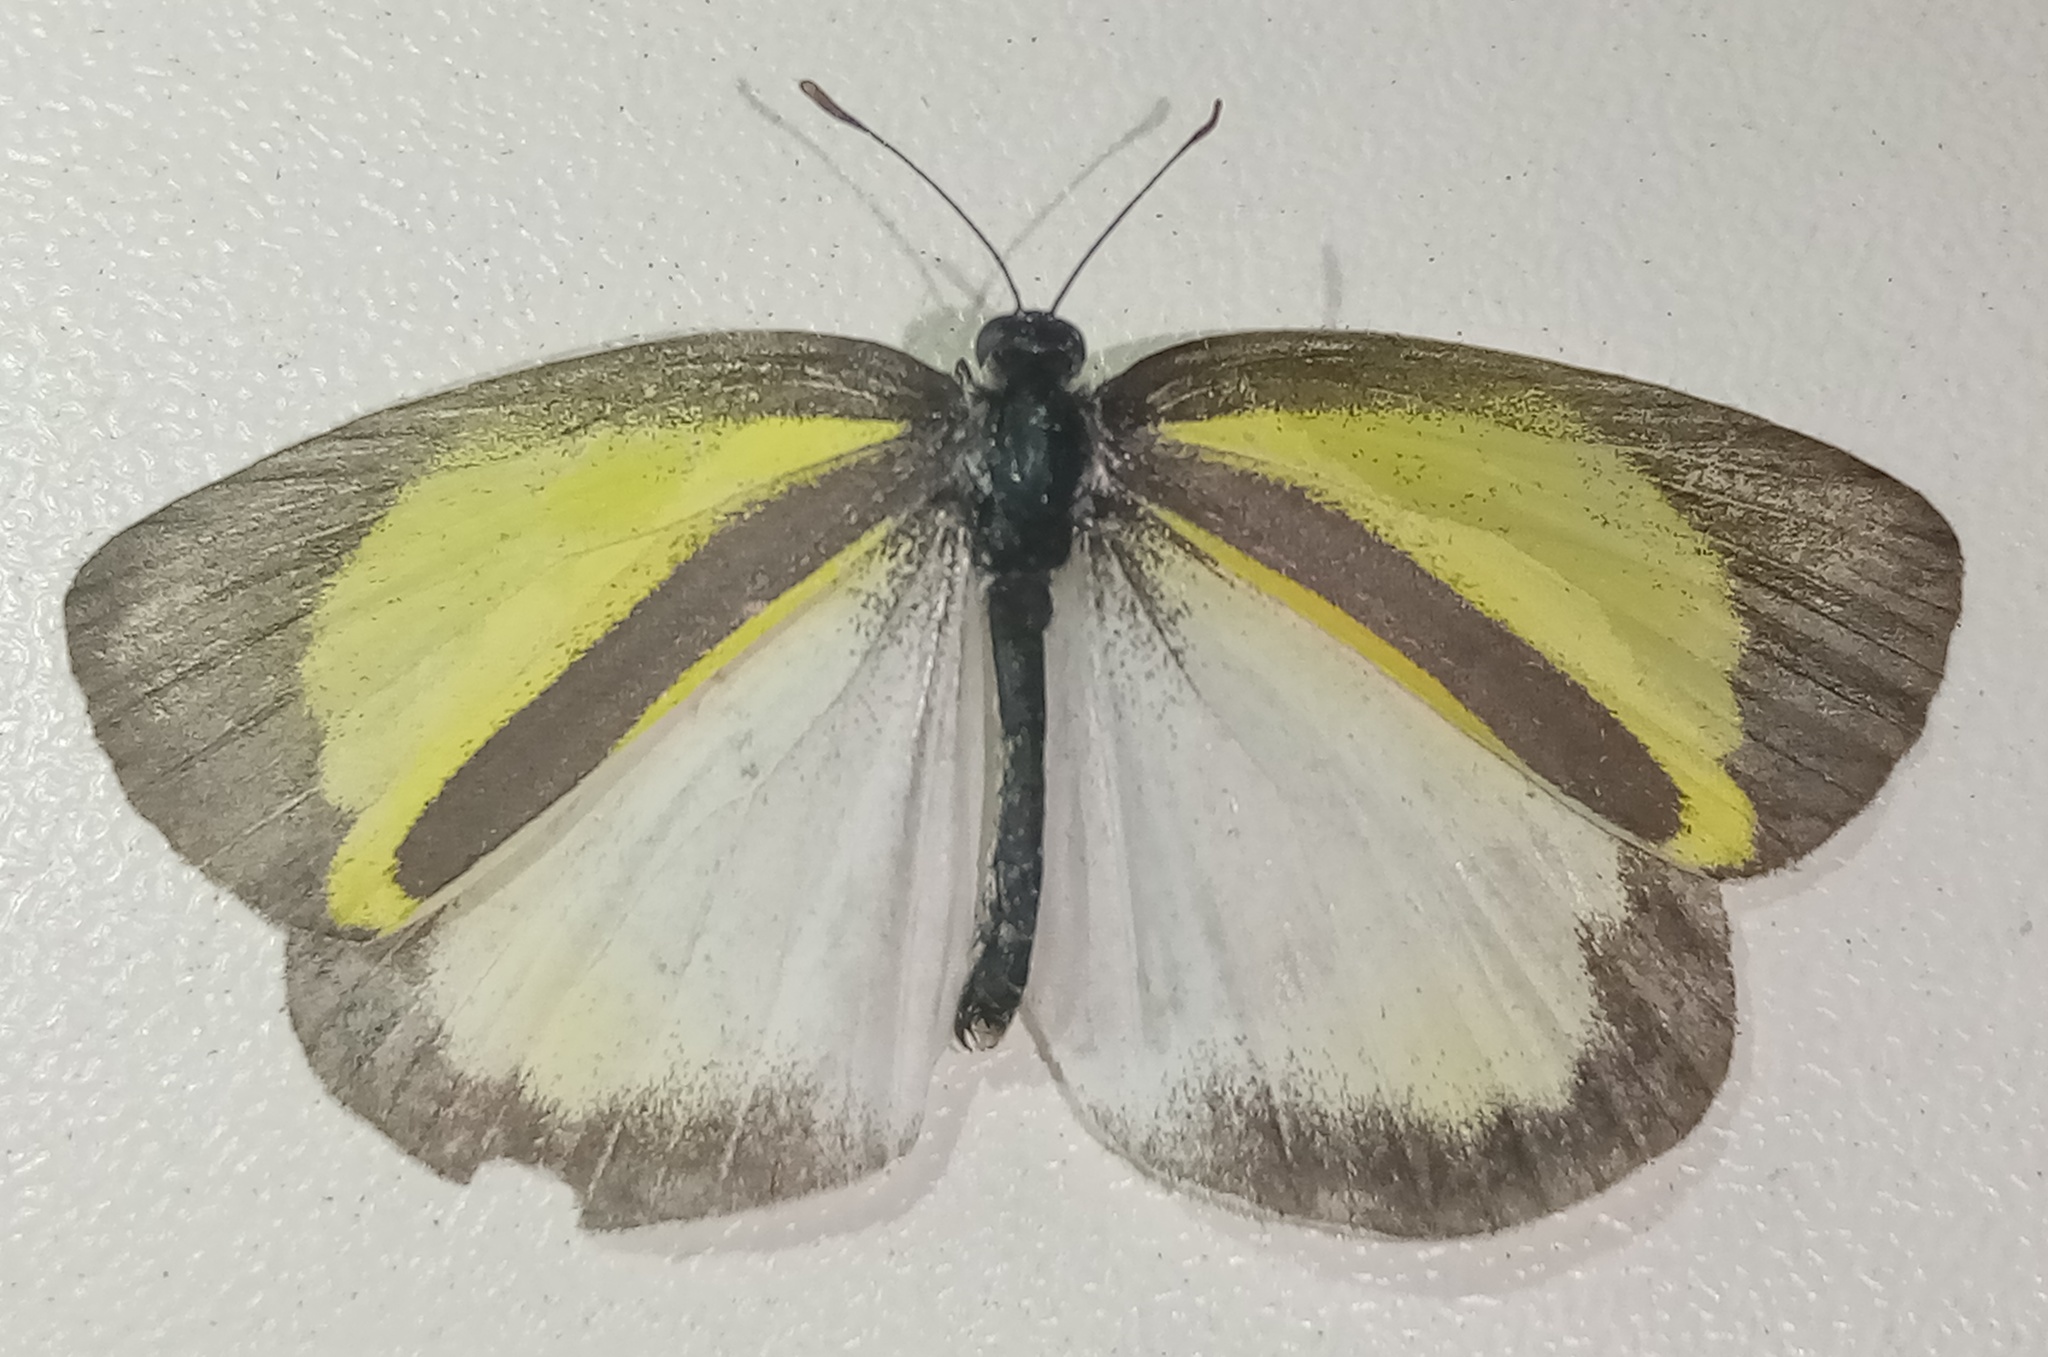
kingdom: Animalia
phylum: Arthropoda
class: Insecta
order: Lepidoptera
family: Pieridae
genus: Eurema
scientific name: Eurema daira
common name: Barred sulphur
